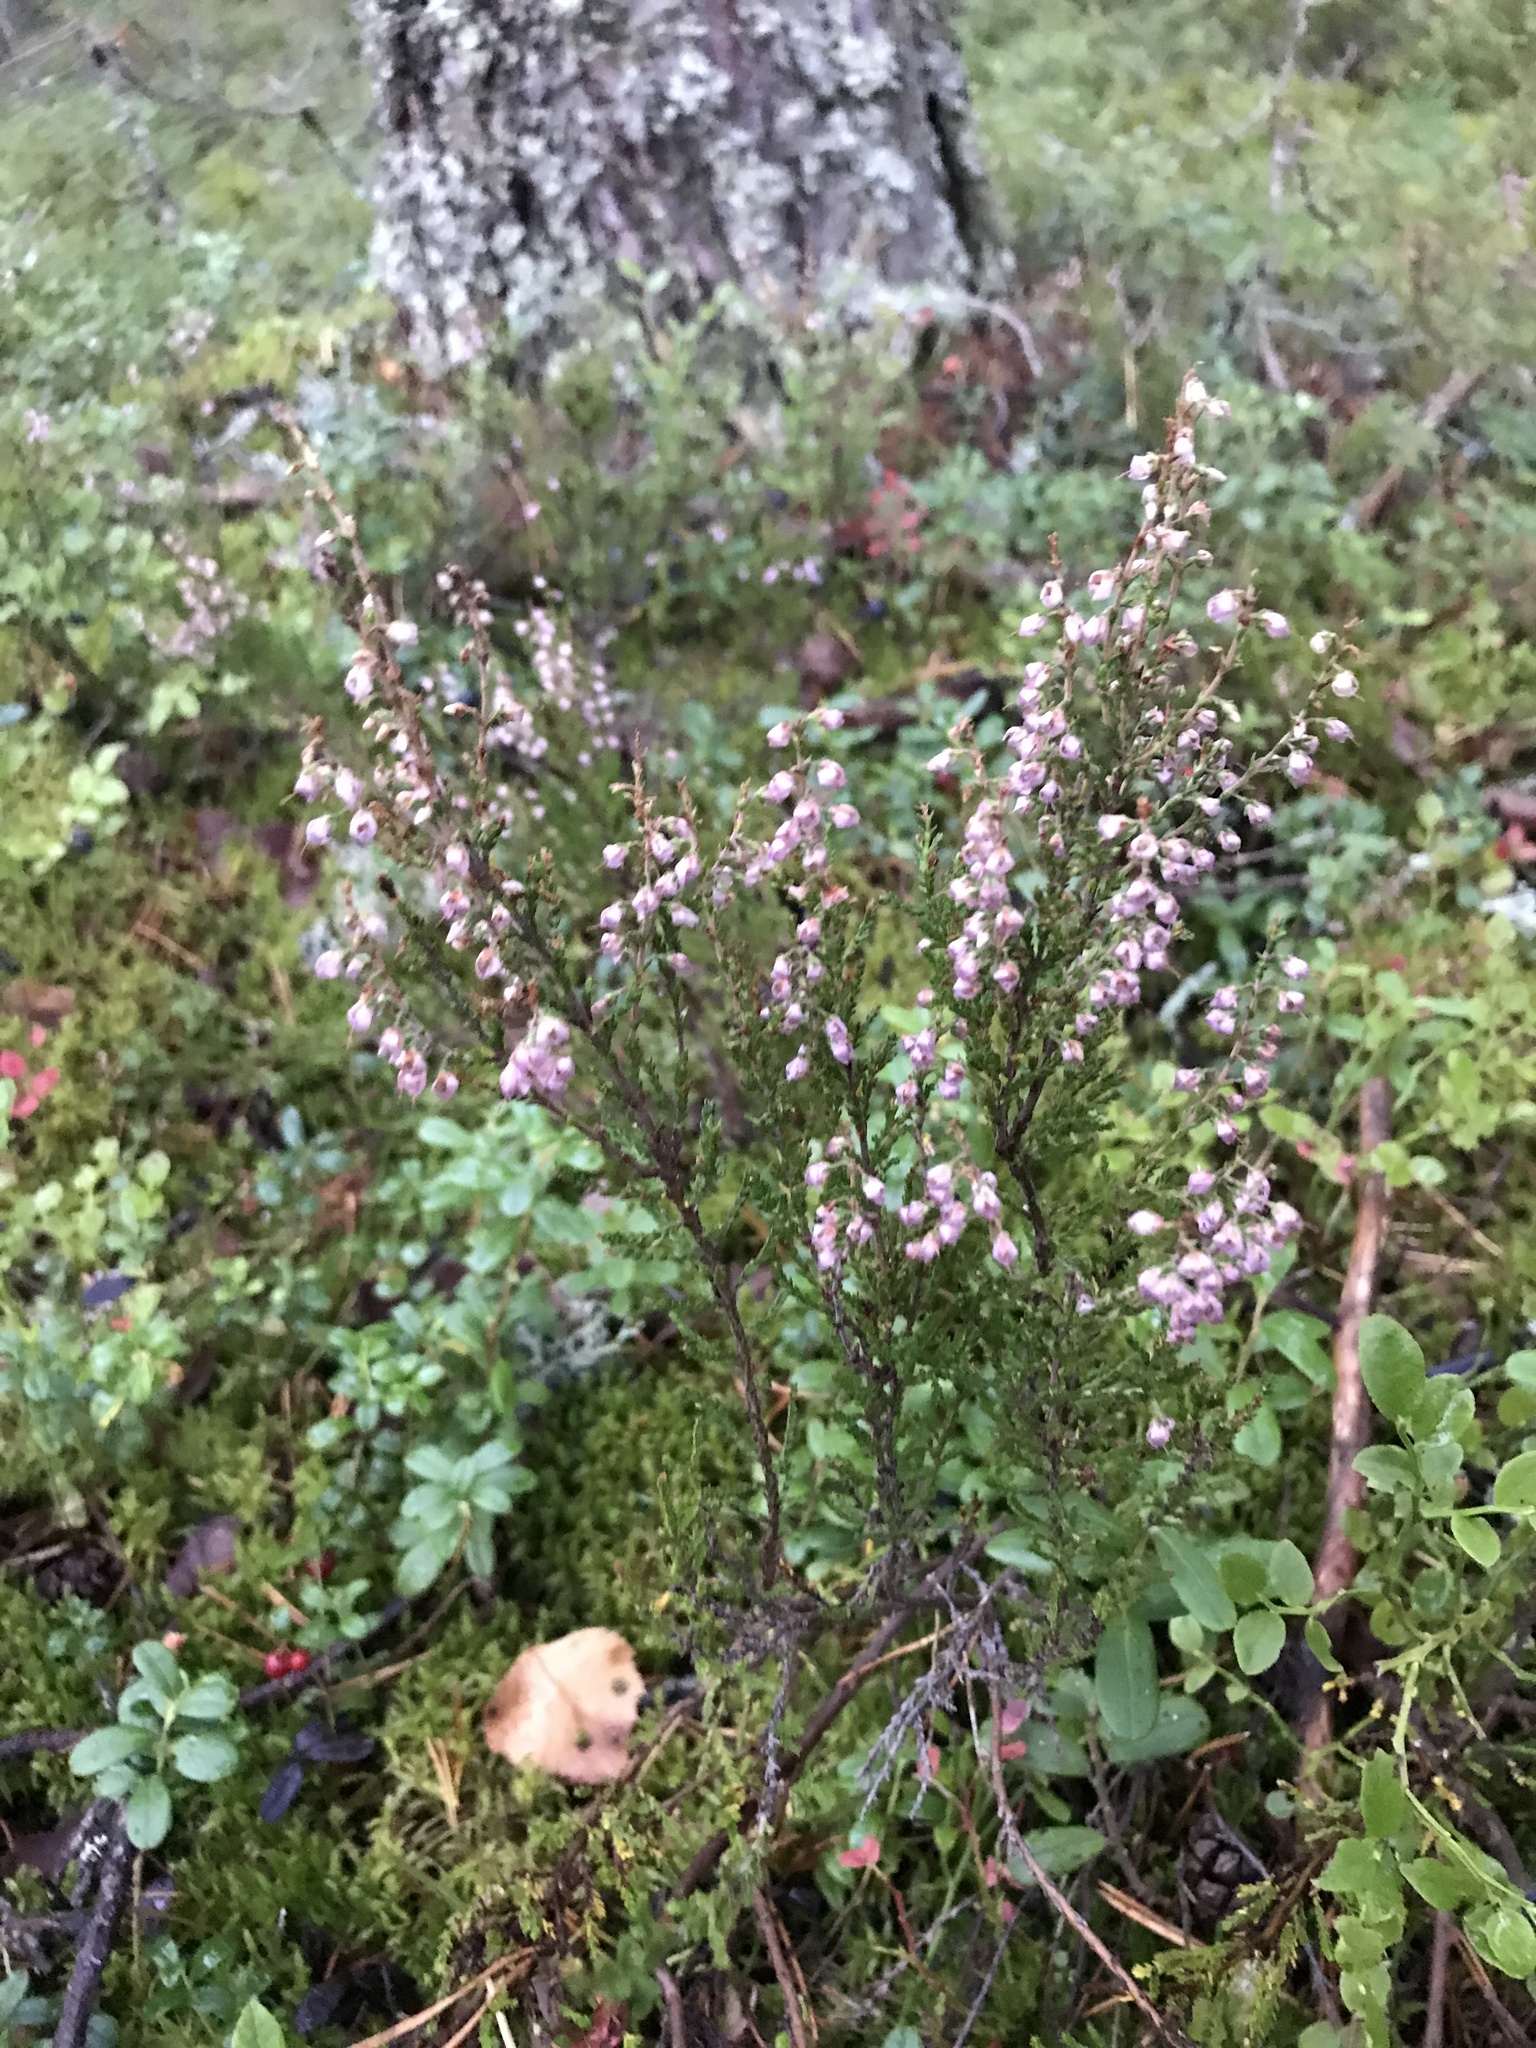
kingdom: Plantae
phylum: Tracheophyta
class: Magnoliopsida
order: Ericales
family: Ericaceae
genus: Calluna
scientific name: Calluna vulgaris
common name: Heather
